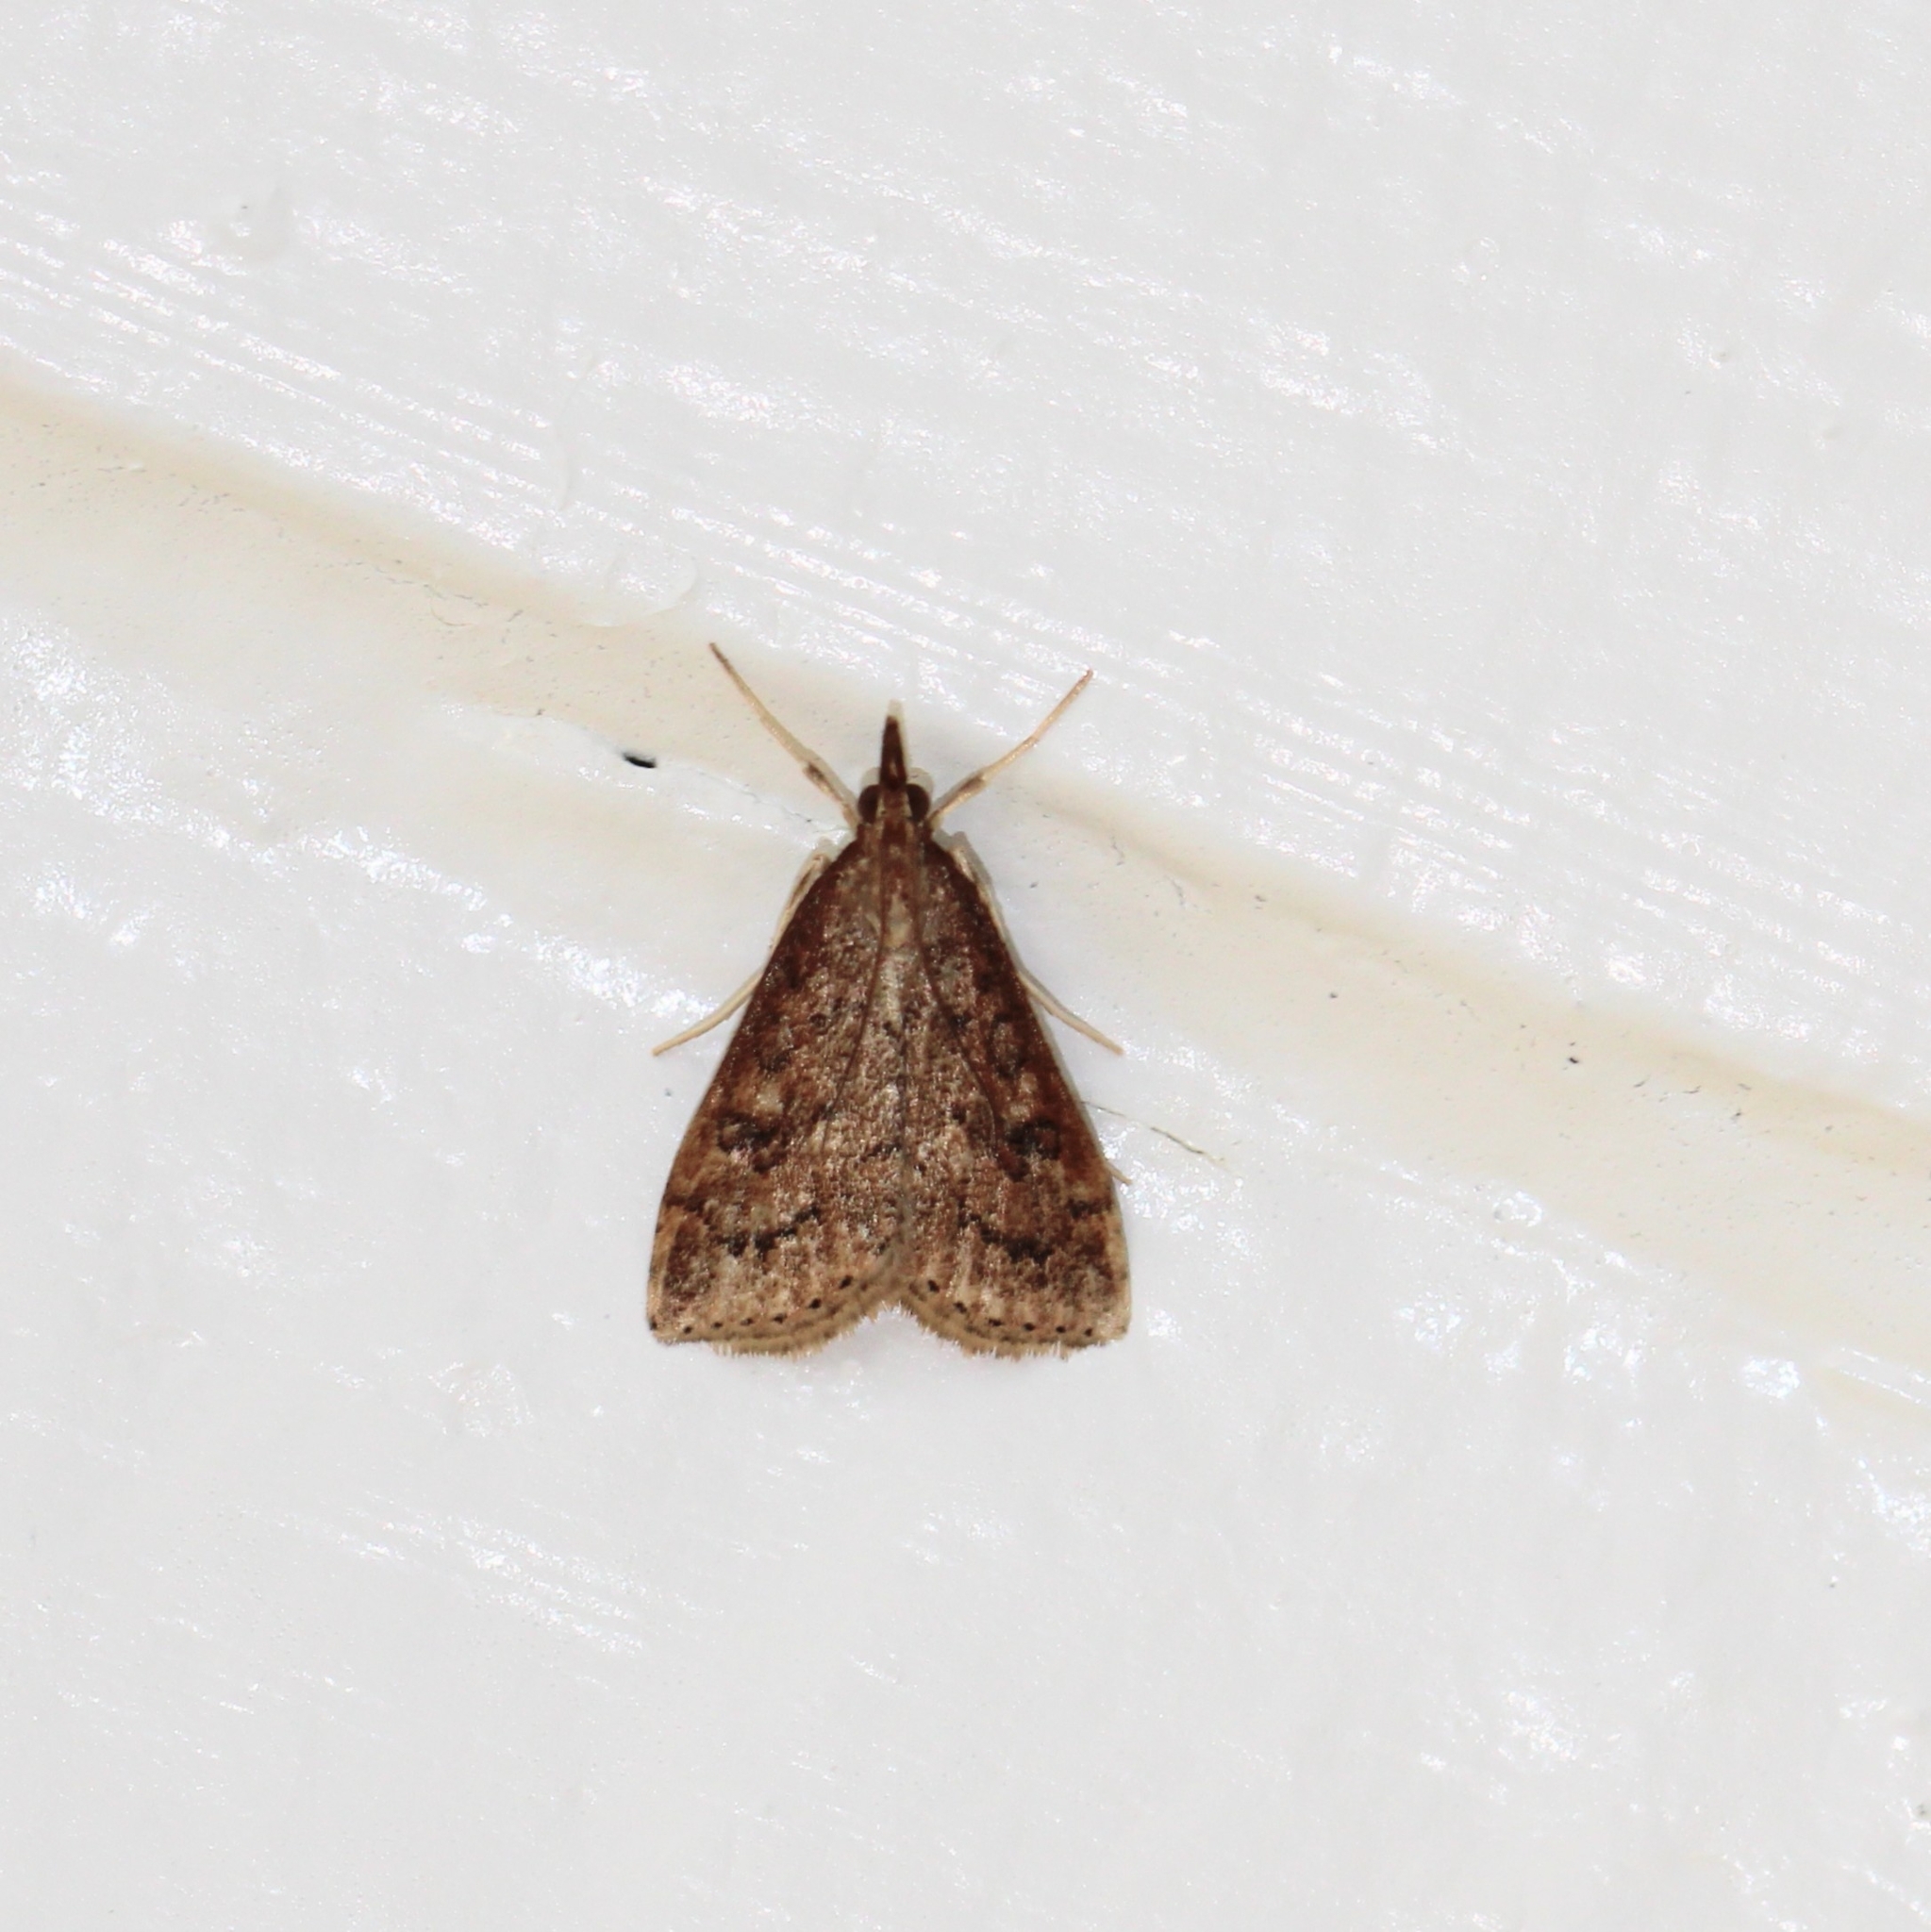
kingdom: Animalia
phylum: Arthropoda
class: Insecta
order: Lepidoptera
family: Crambidae
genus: Udea
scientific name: Udea rubigalis
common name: Celery leaftier moth
